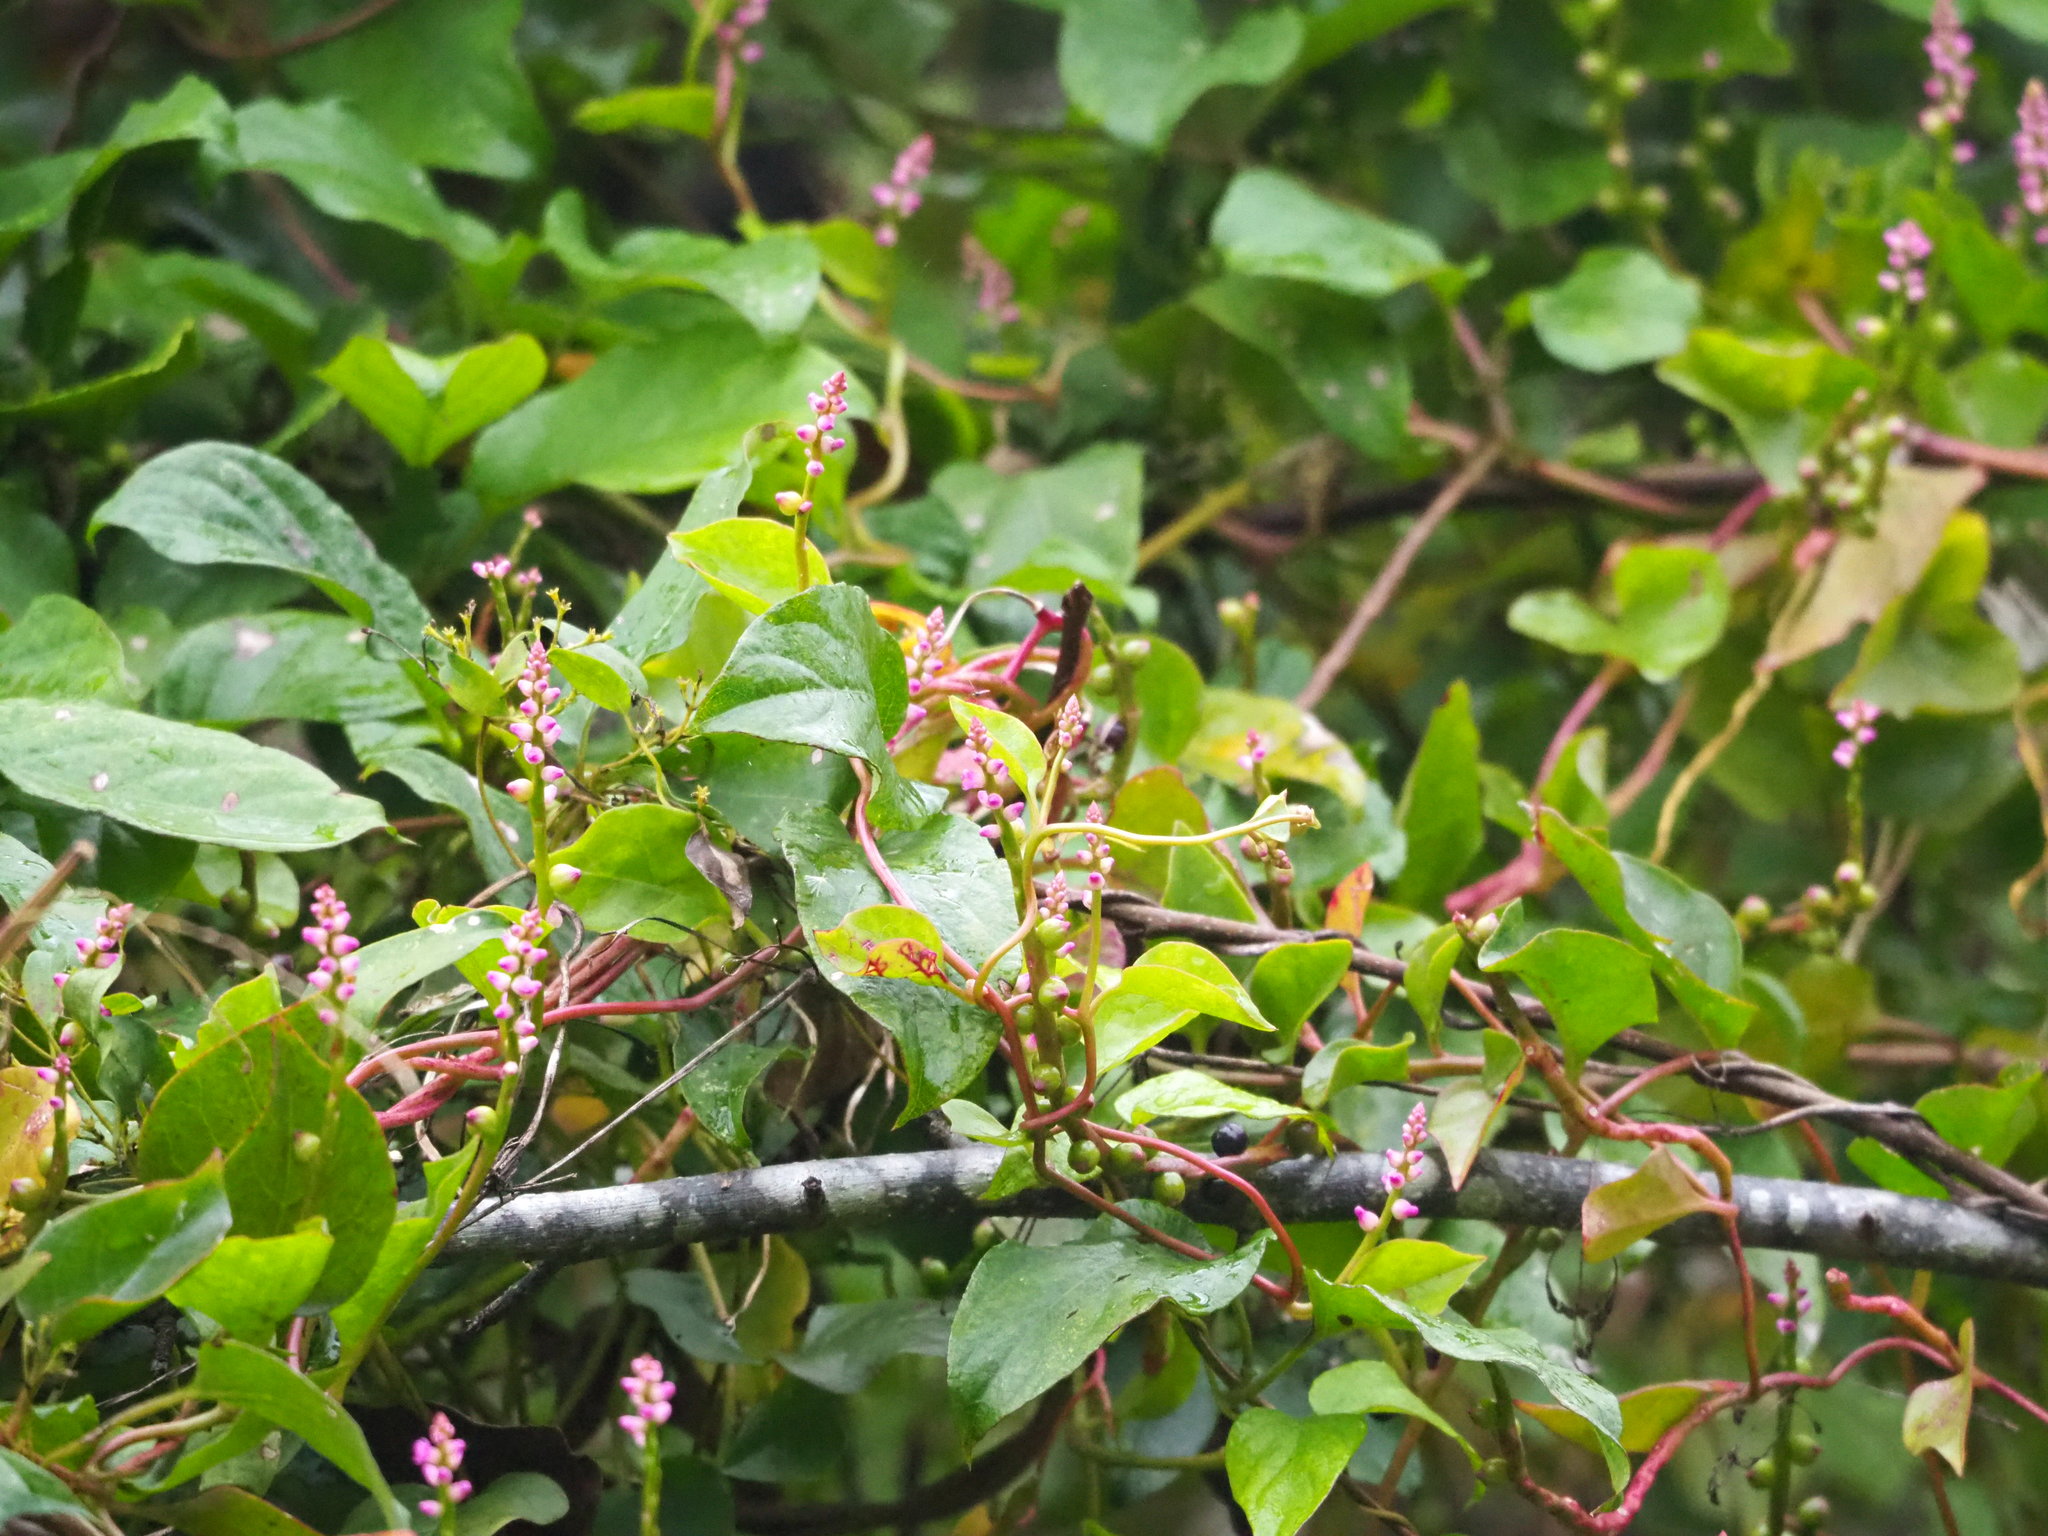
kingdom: Plantae
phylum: Tracheophyta
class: Magnoliopsida
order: Caryophyllales
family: Basellaceae
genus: Basella
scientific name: Basella alba
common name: Indian spinach
